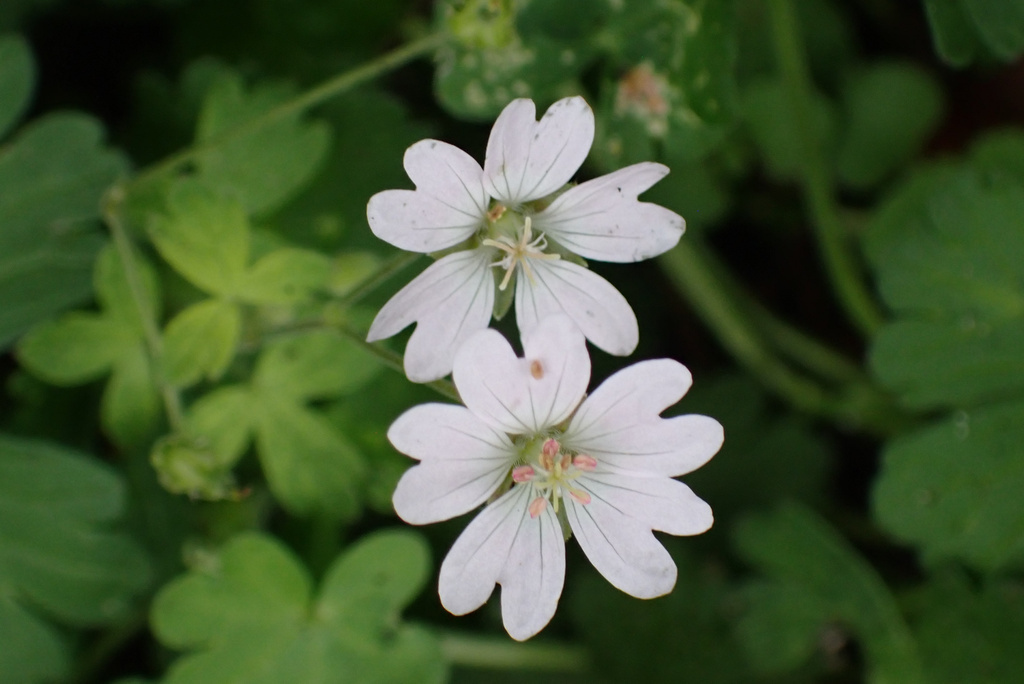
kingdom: Plantae
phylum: Tracheophyta
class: Magnoliopsida
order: Geraniales
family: Geraniaceae
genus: Geranium
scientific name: Geranium pyrenaicum
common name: Hedgerow crane's-bill
